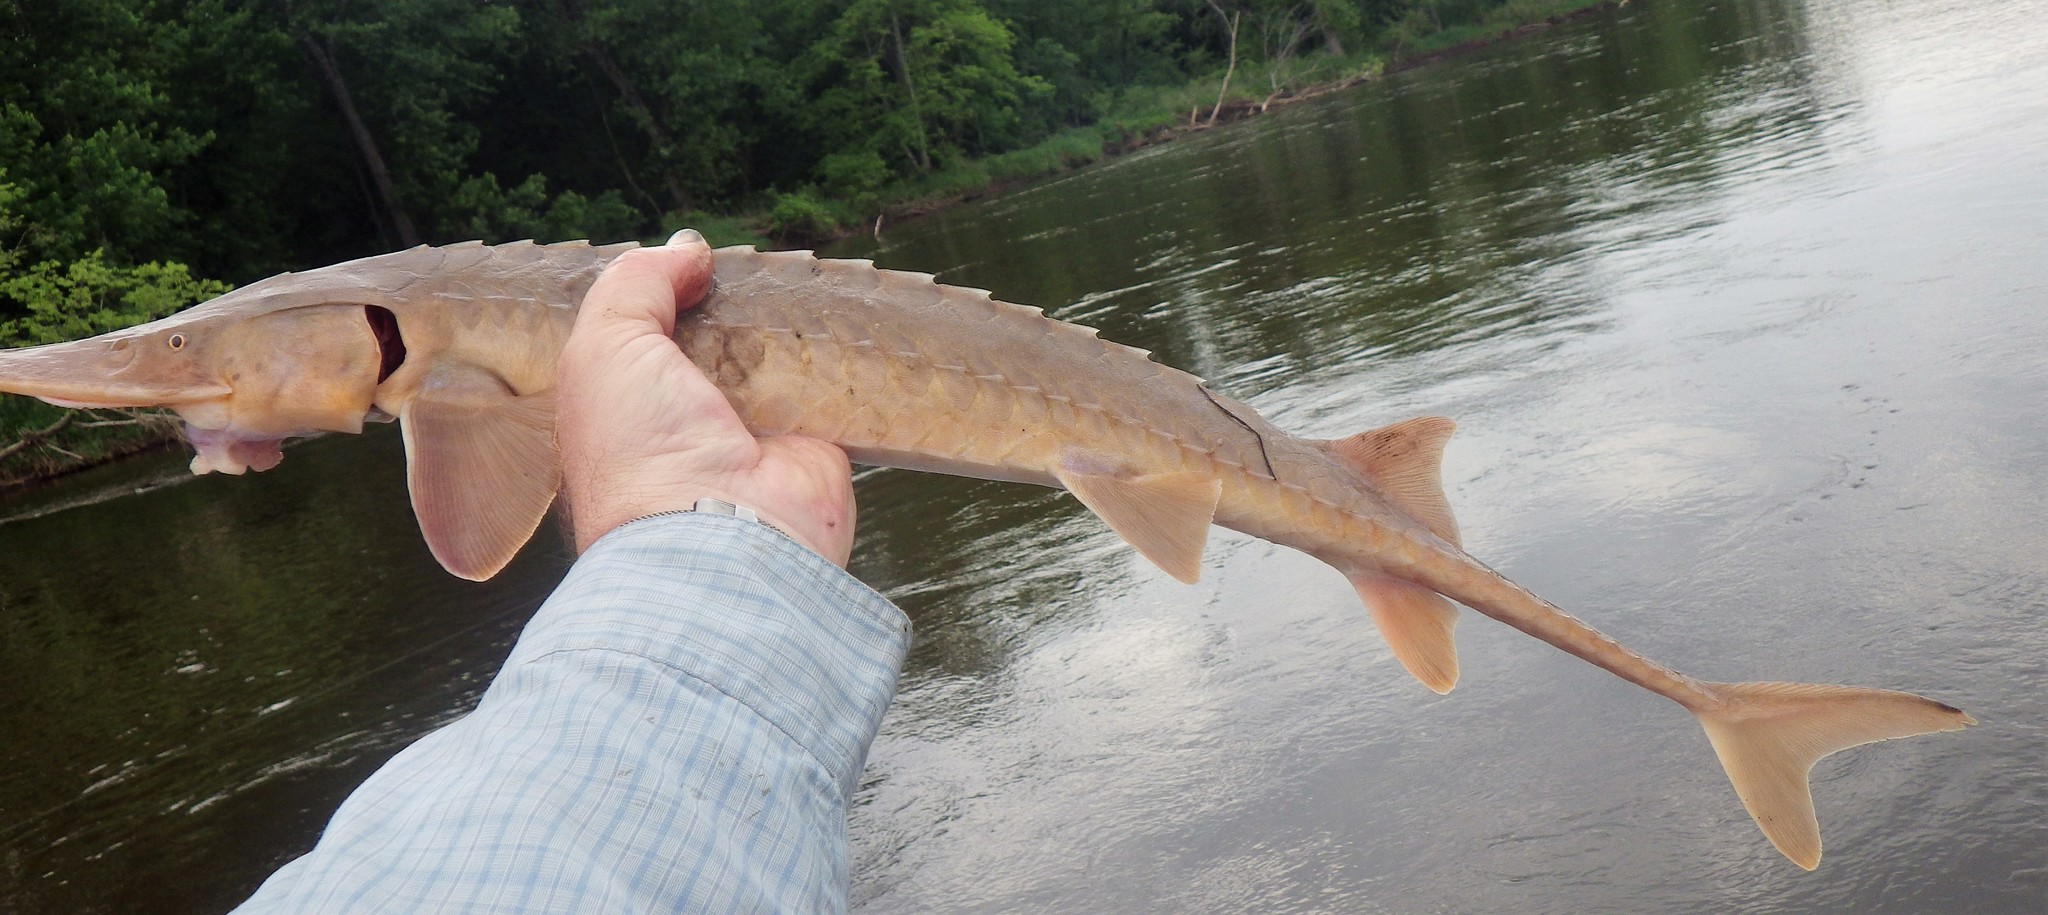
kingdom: Animalia
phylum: Chordata
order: Acipenseriformes
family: Acipenseridae
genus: Scaphirhynchus
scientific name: Scaphirhynchus platorynchus
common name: Shovelnose sturgeon
